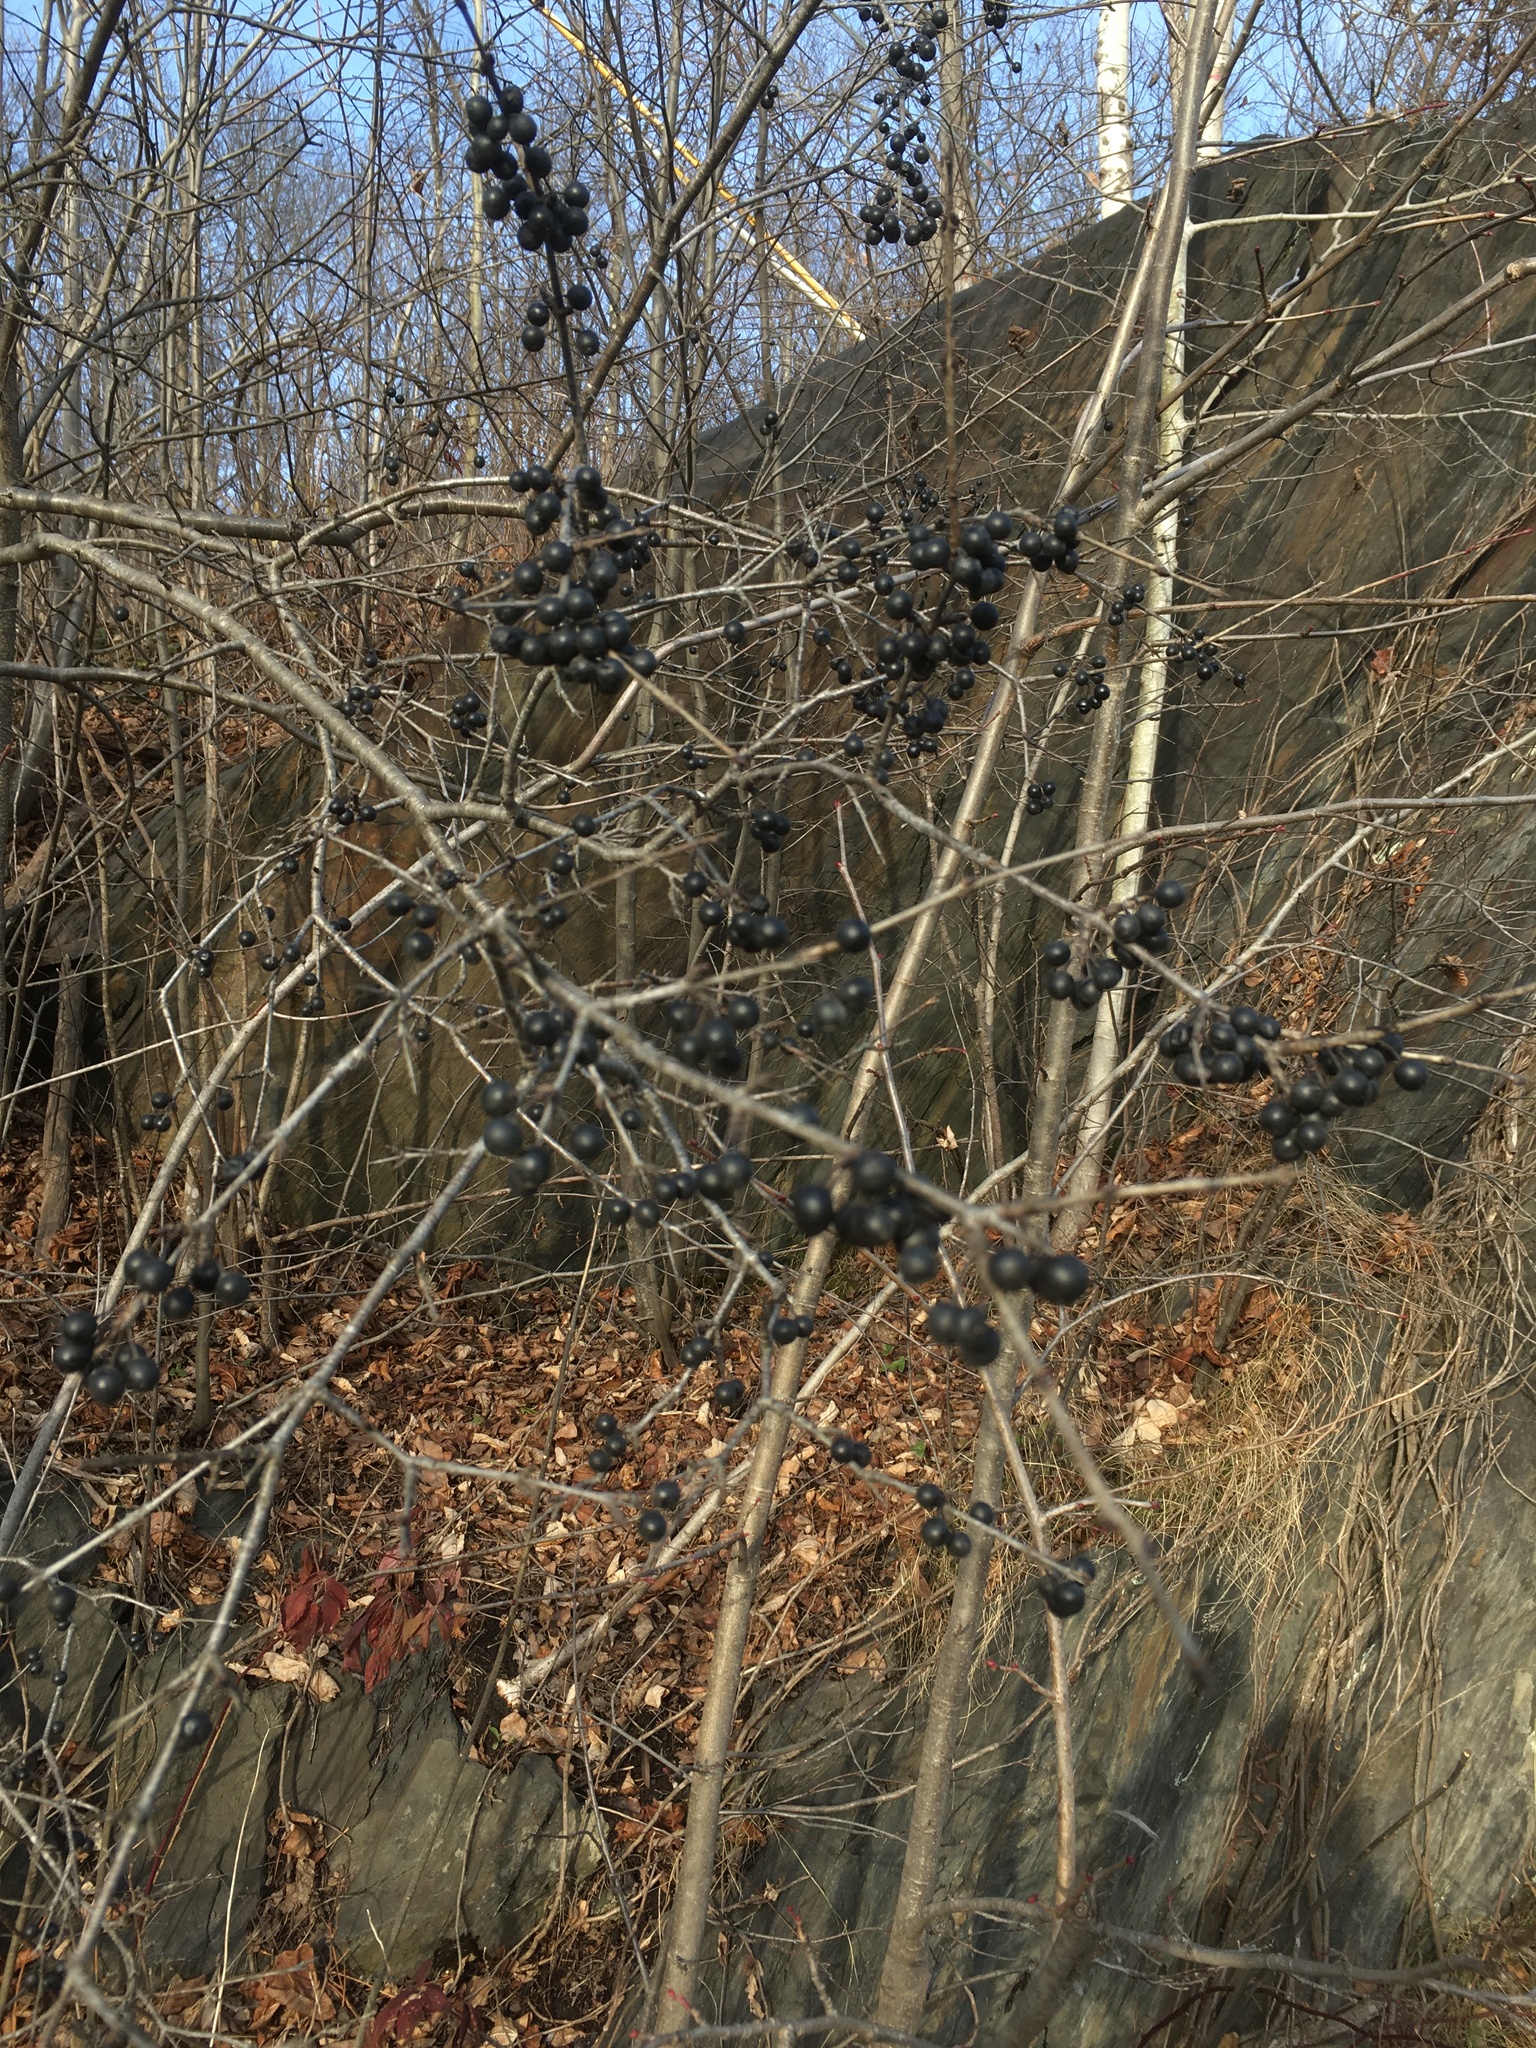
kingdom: Plantae
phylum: Tracheophyta
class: Magnoliopsida
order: Rosales
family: Rhamnaceae
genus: Rhamnus
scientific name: Rhamnus cathartica
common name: Common buckthorn
